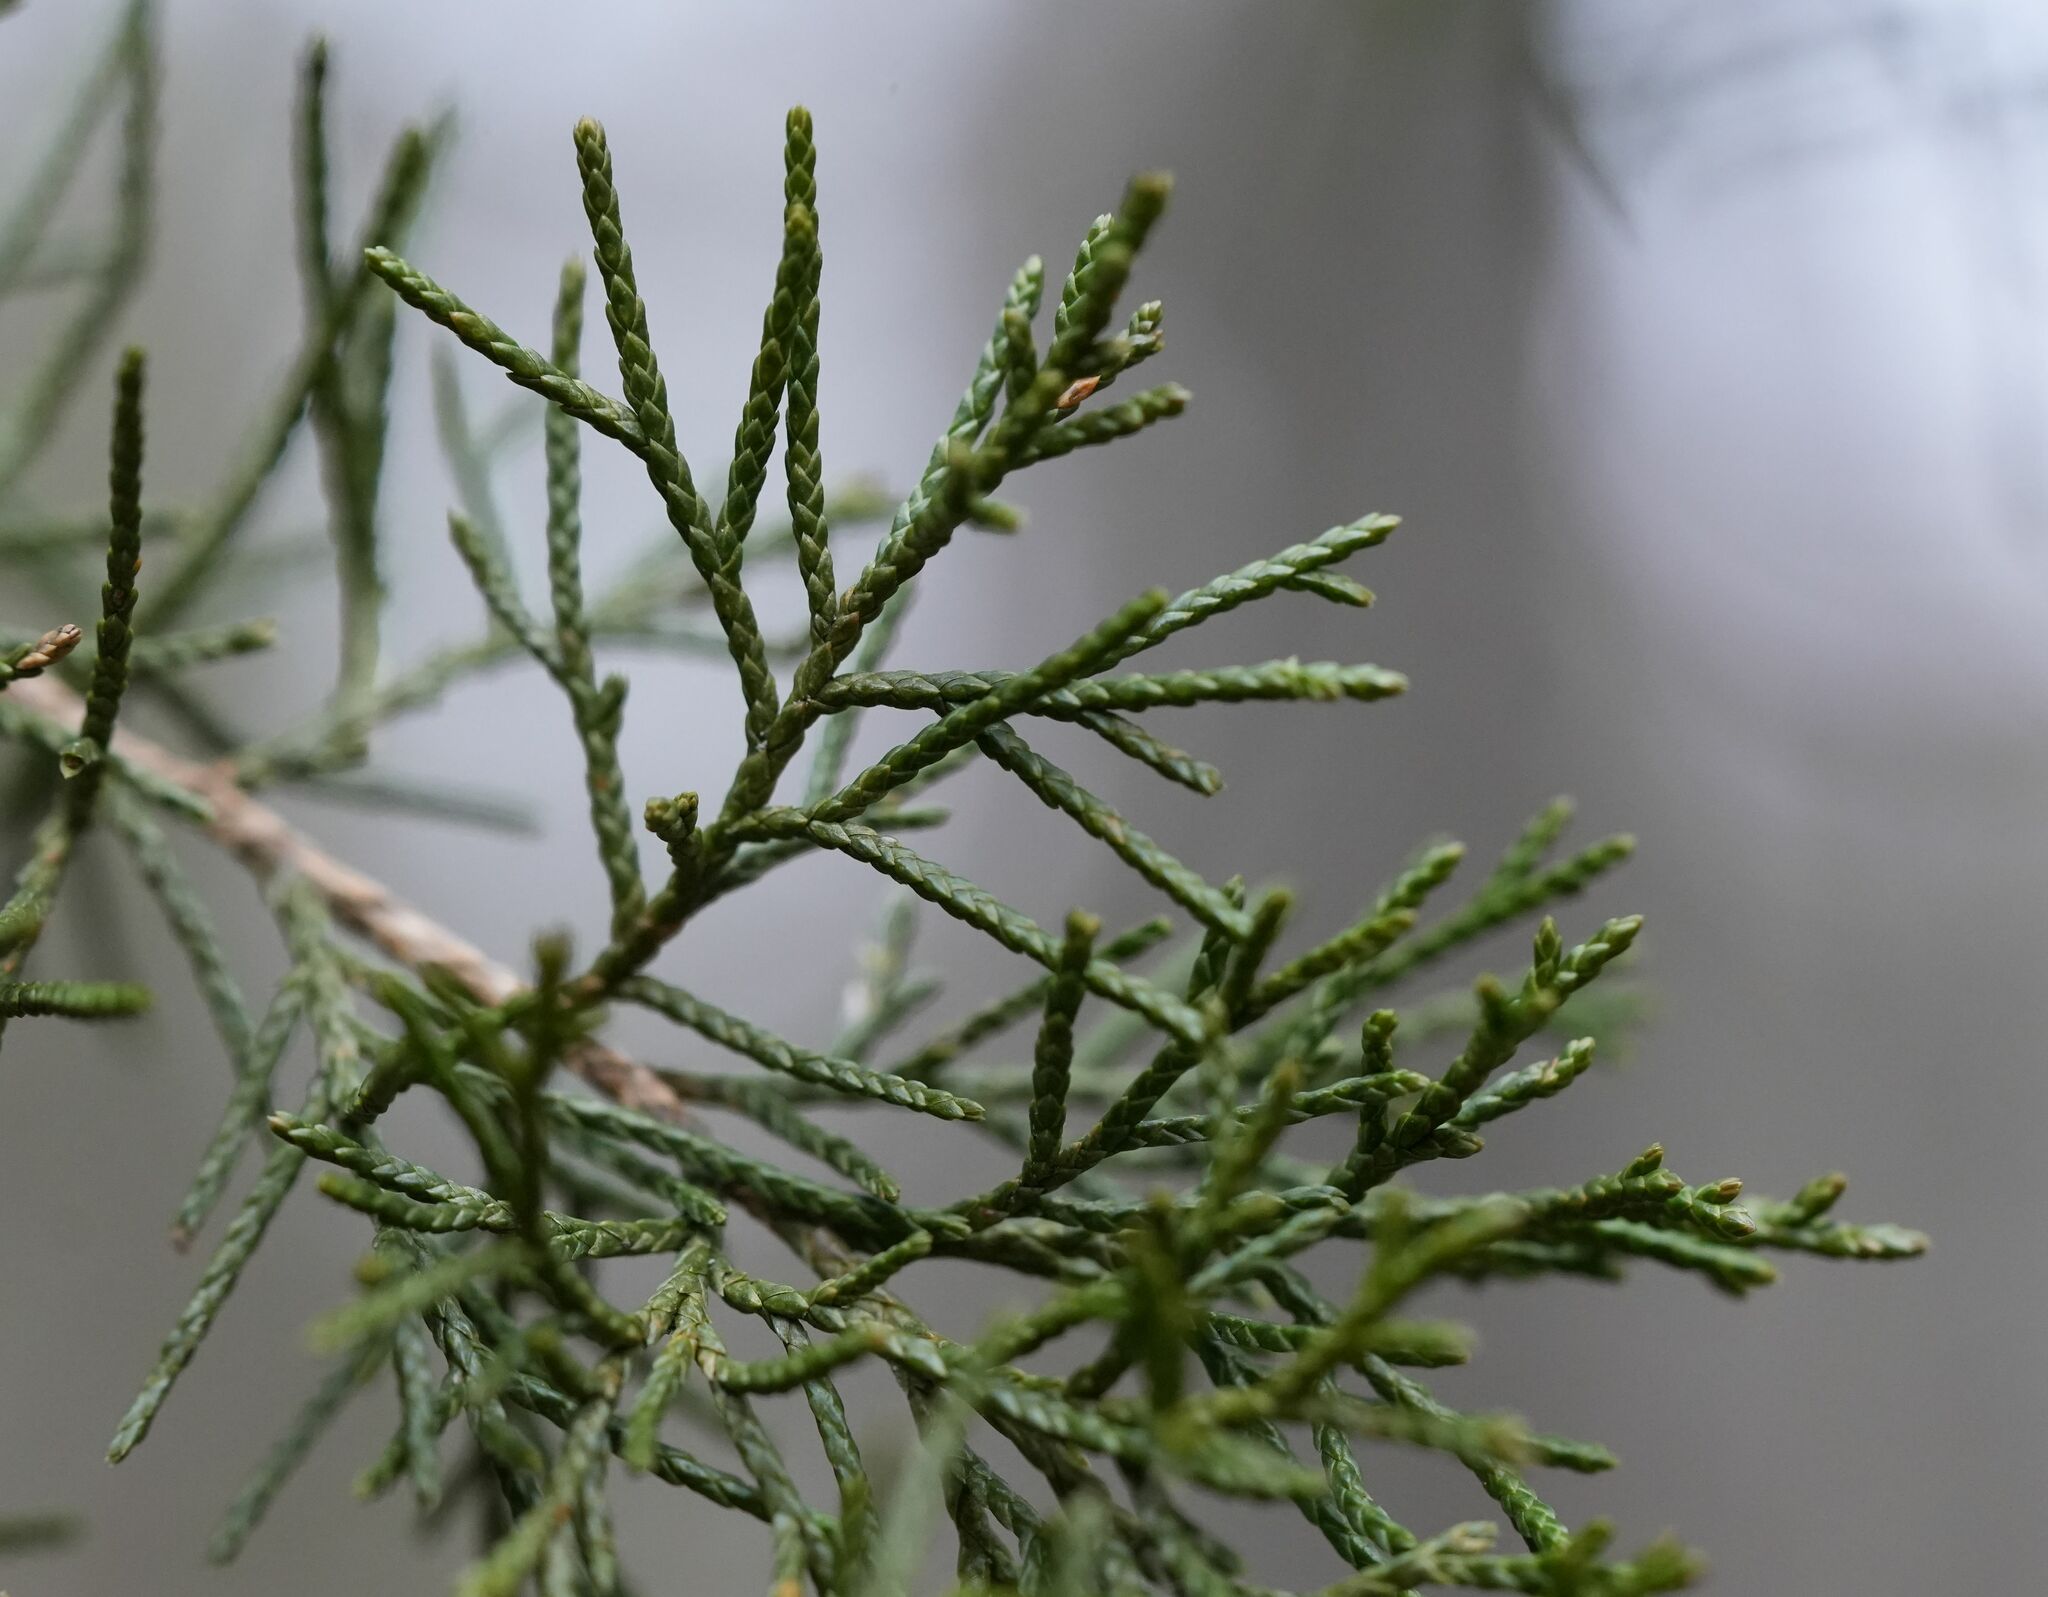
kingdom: Plantae
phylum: Tracheophyta
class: Pinopsida
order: Pinales
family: Cupressaceae
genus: Juniperus
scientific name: Juniperus virginiana
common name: Red juniper
